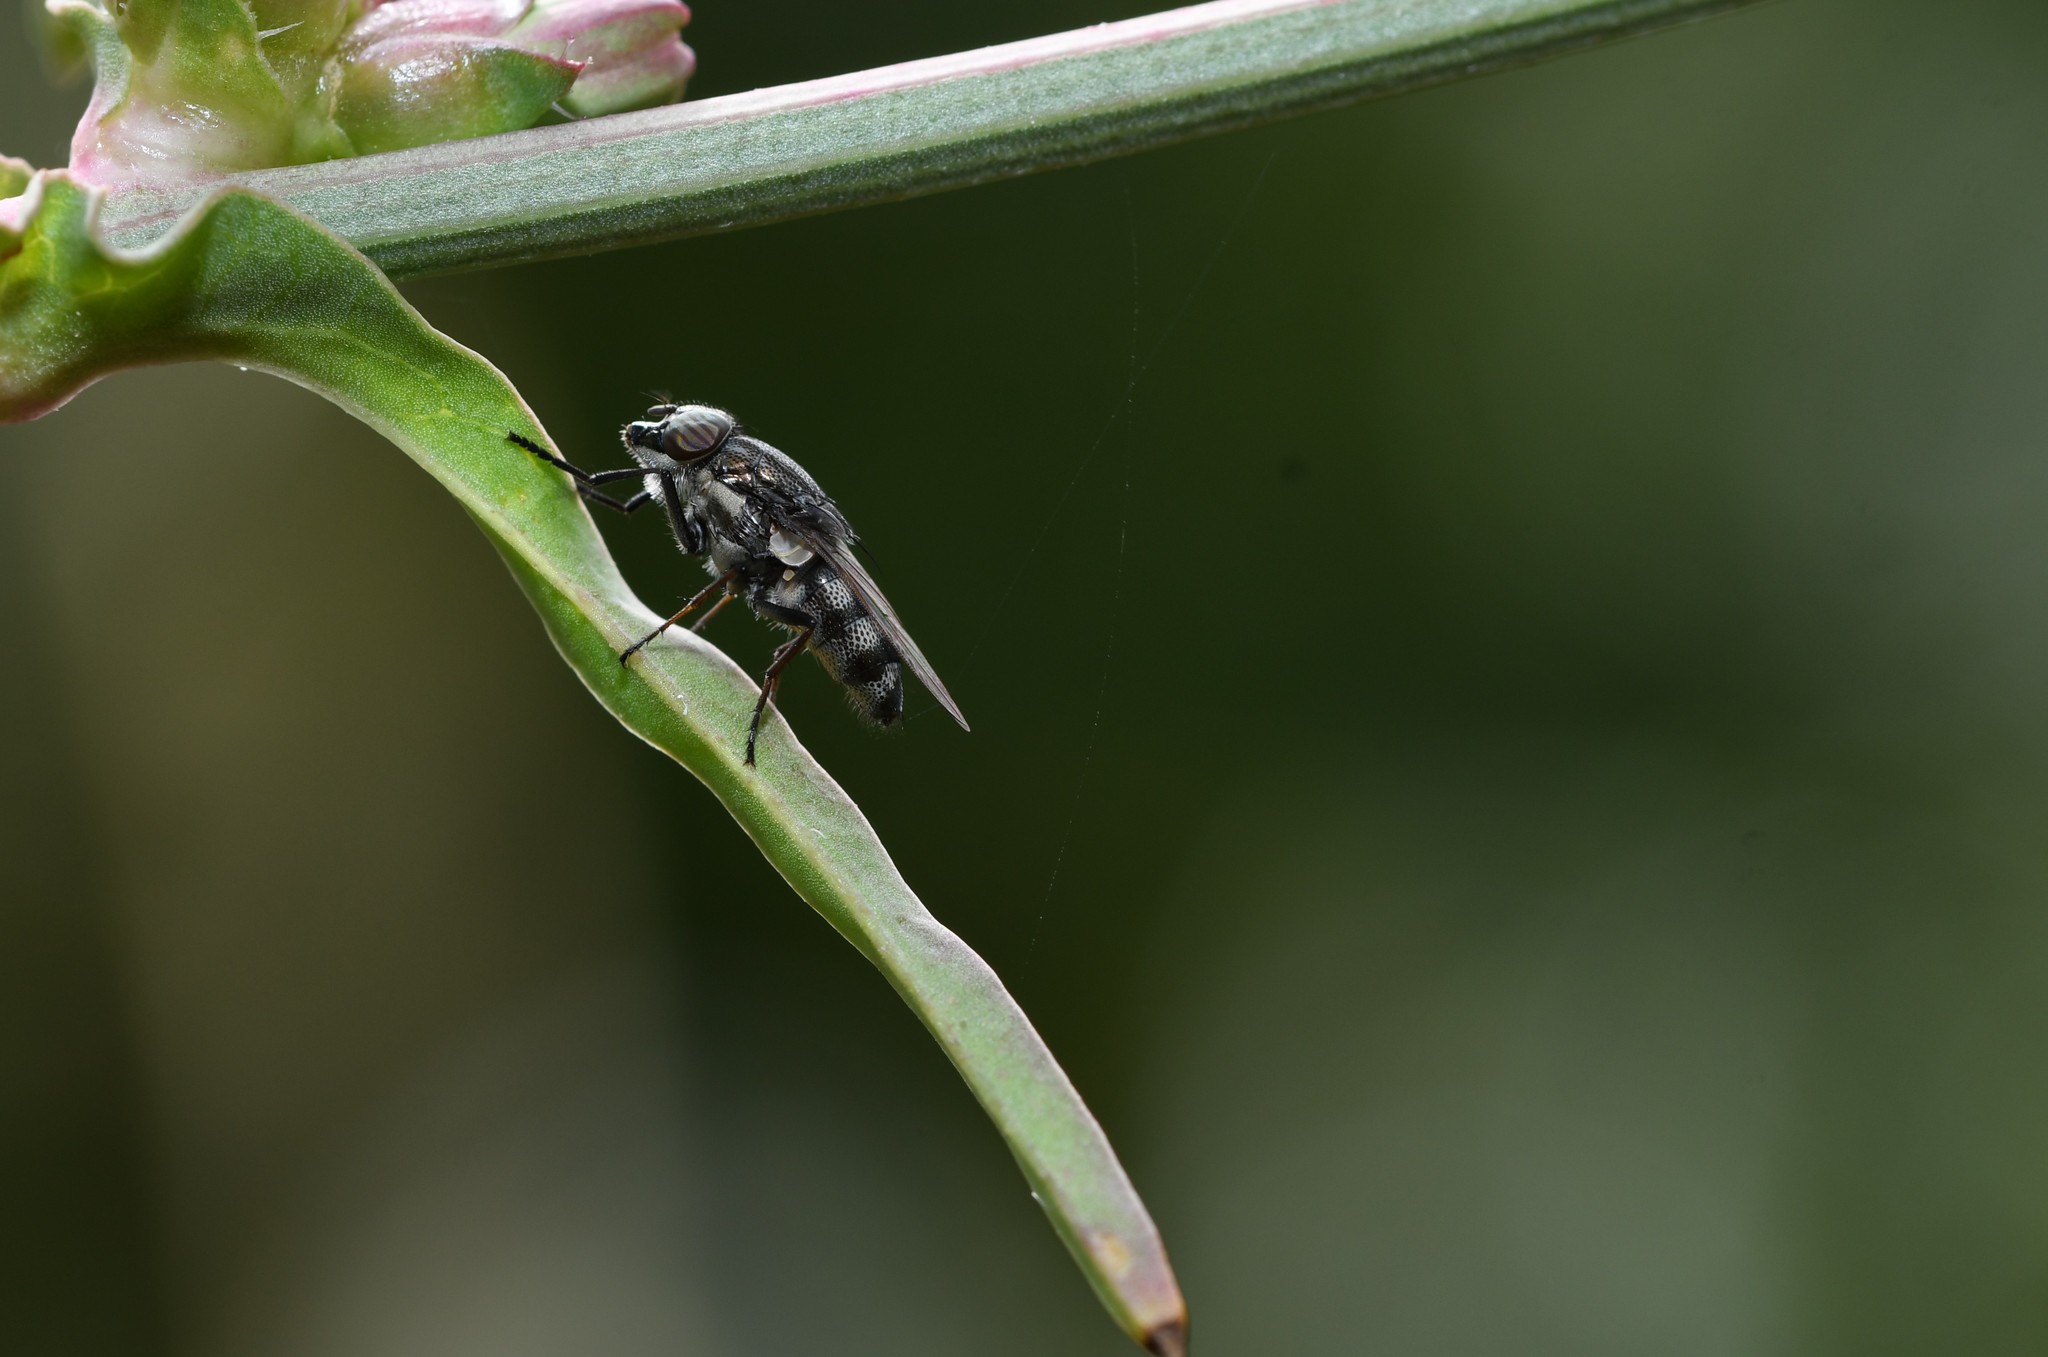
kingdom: Animalia
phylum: Arthropoda
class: Insecta
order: Diptera
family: Calliphoridae
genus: Stomorhina
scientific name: Stomorhina lunata
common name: Locust blowfly
